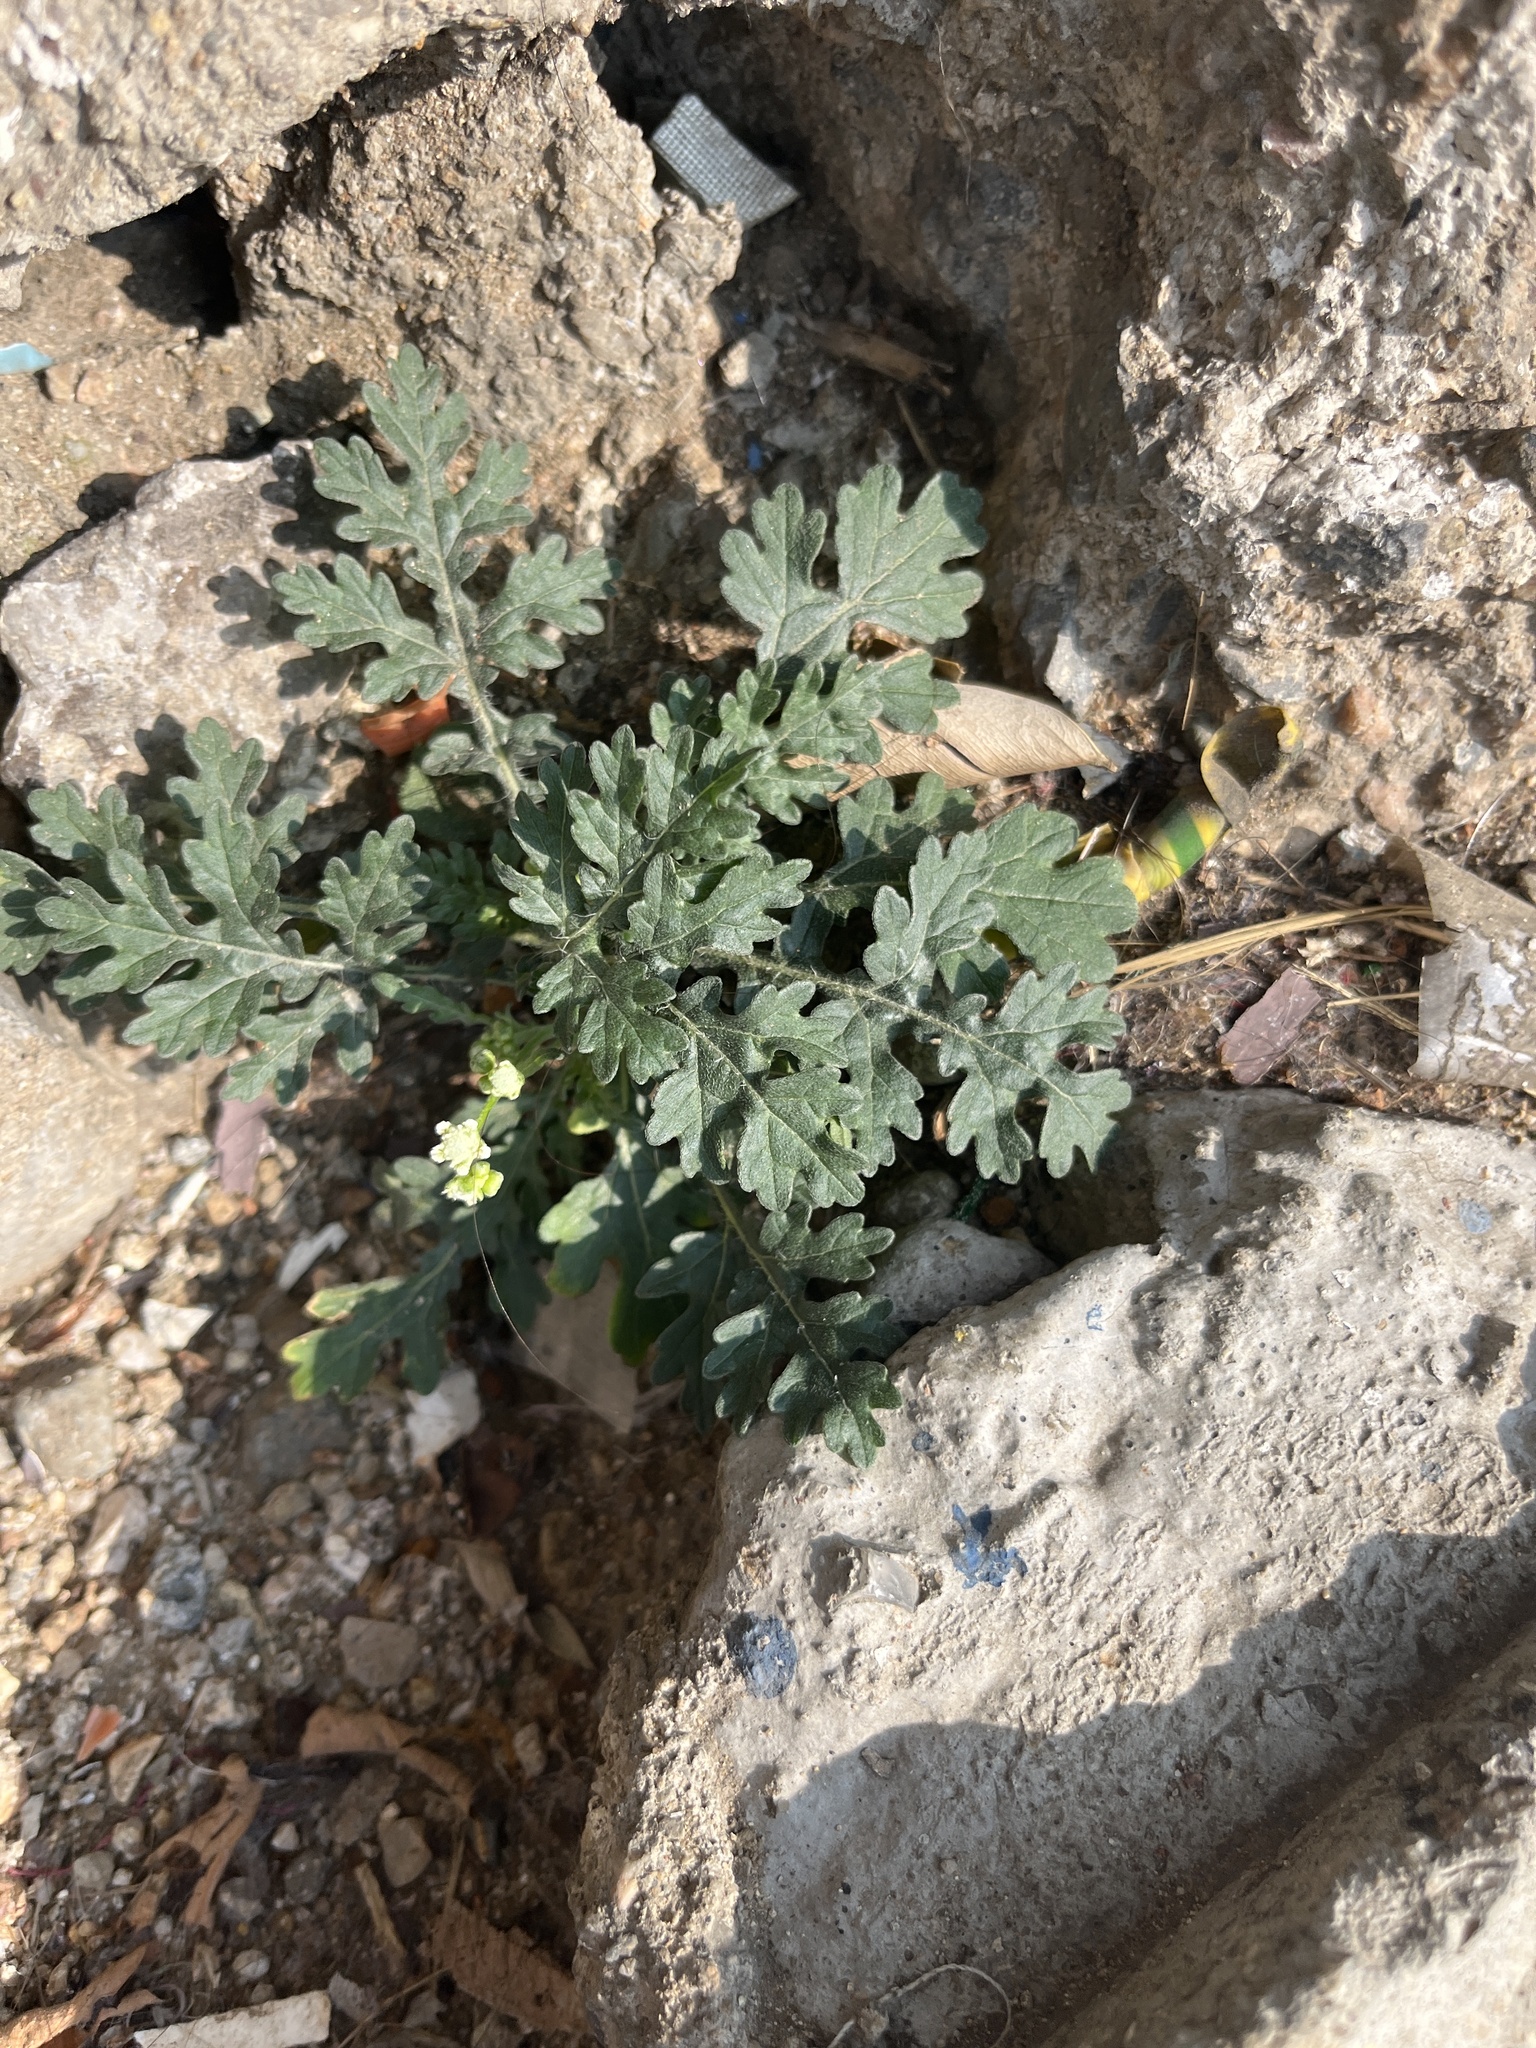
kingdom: Plantae
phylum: Tracheophyta
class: Magnoliopsida
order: Asterales
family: Asteraceae
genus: Parthenium
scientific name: Parthenium bipinnatifidum
